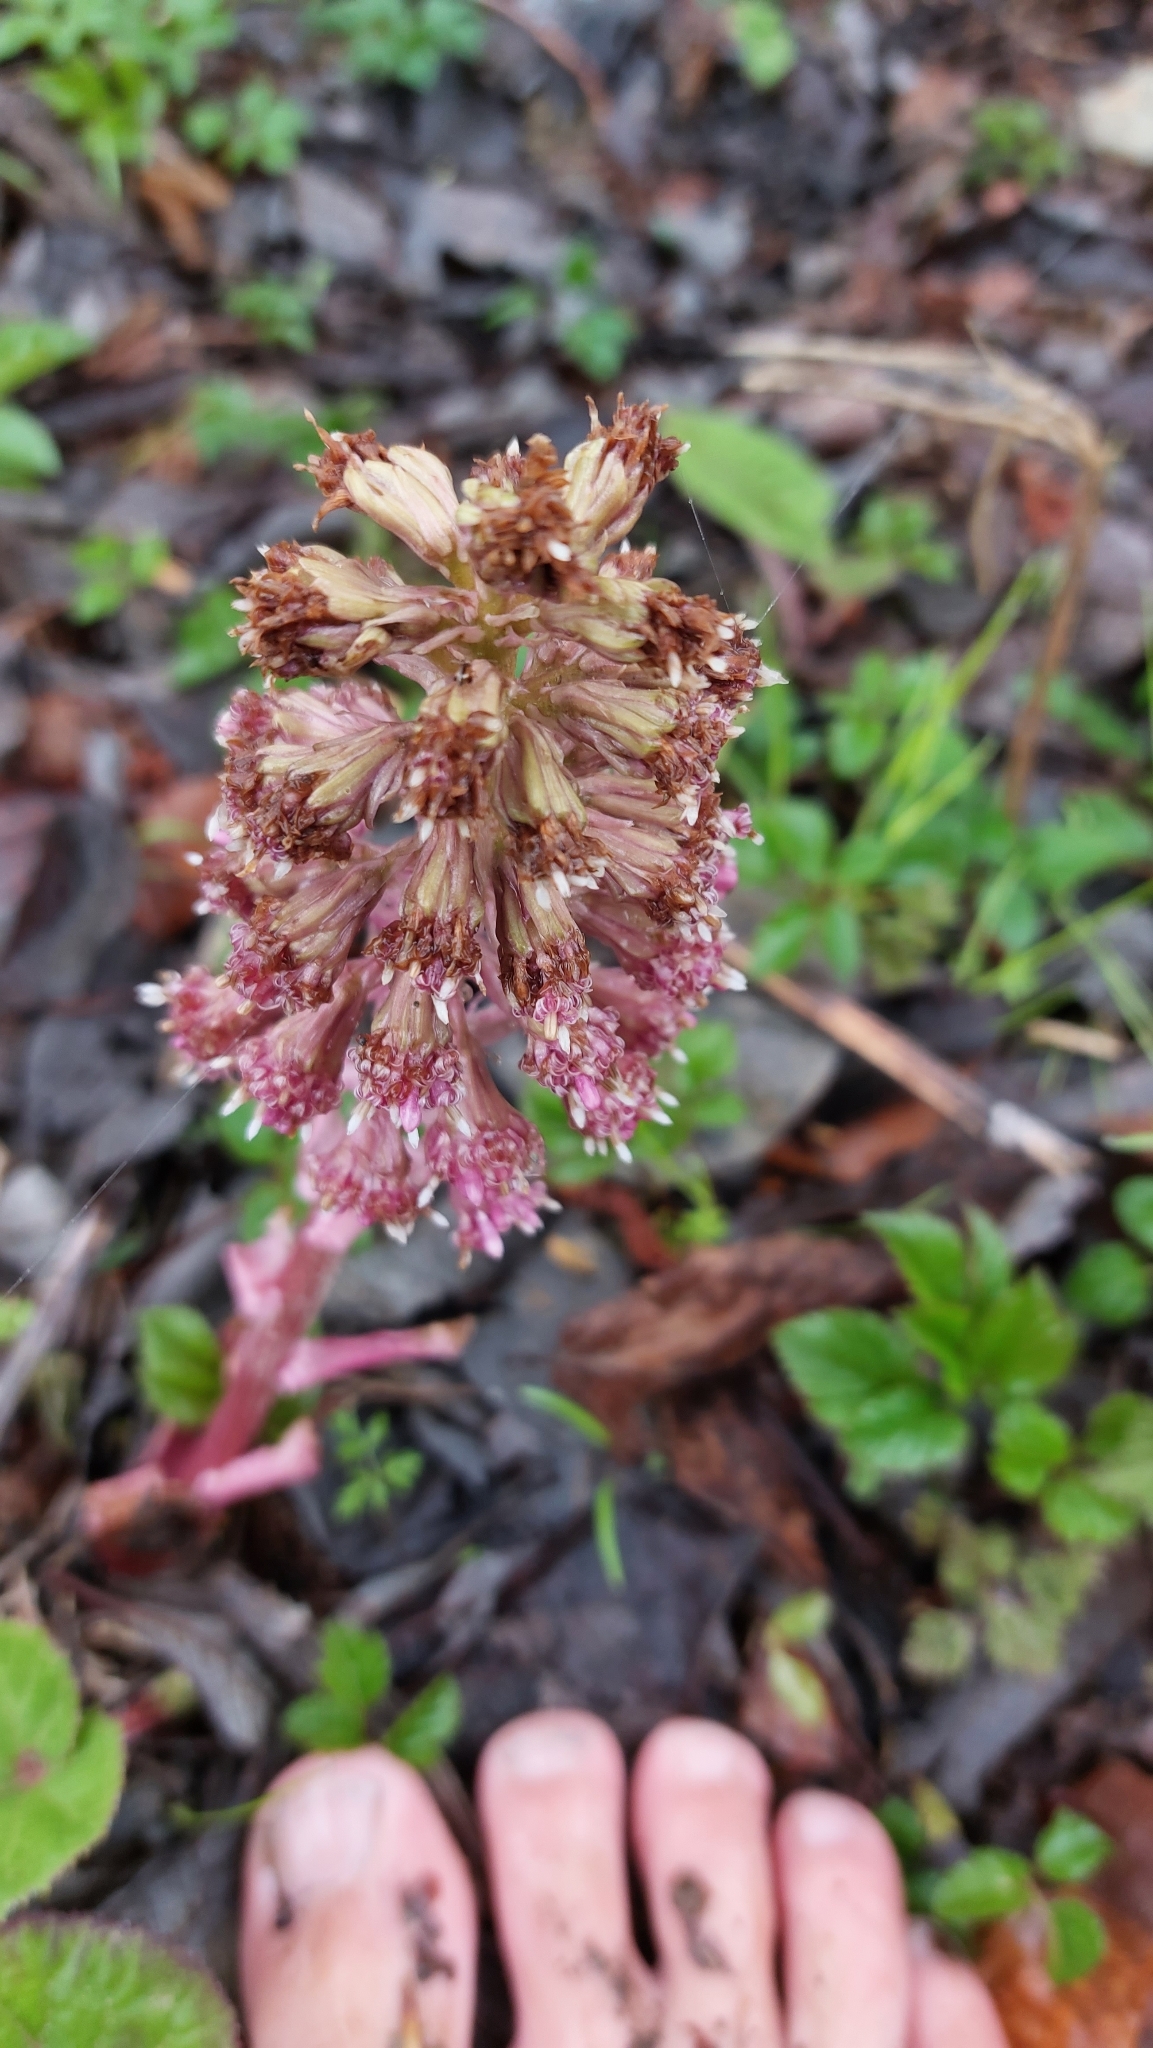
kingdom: Plantae
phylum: Tracheophyta
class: Magnoliopsida
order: Asterales
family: Asteraceae
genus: Petasites
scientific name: Petasites hybridus
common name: Butterbur
